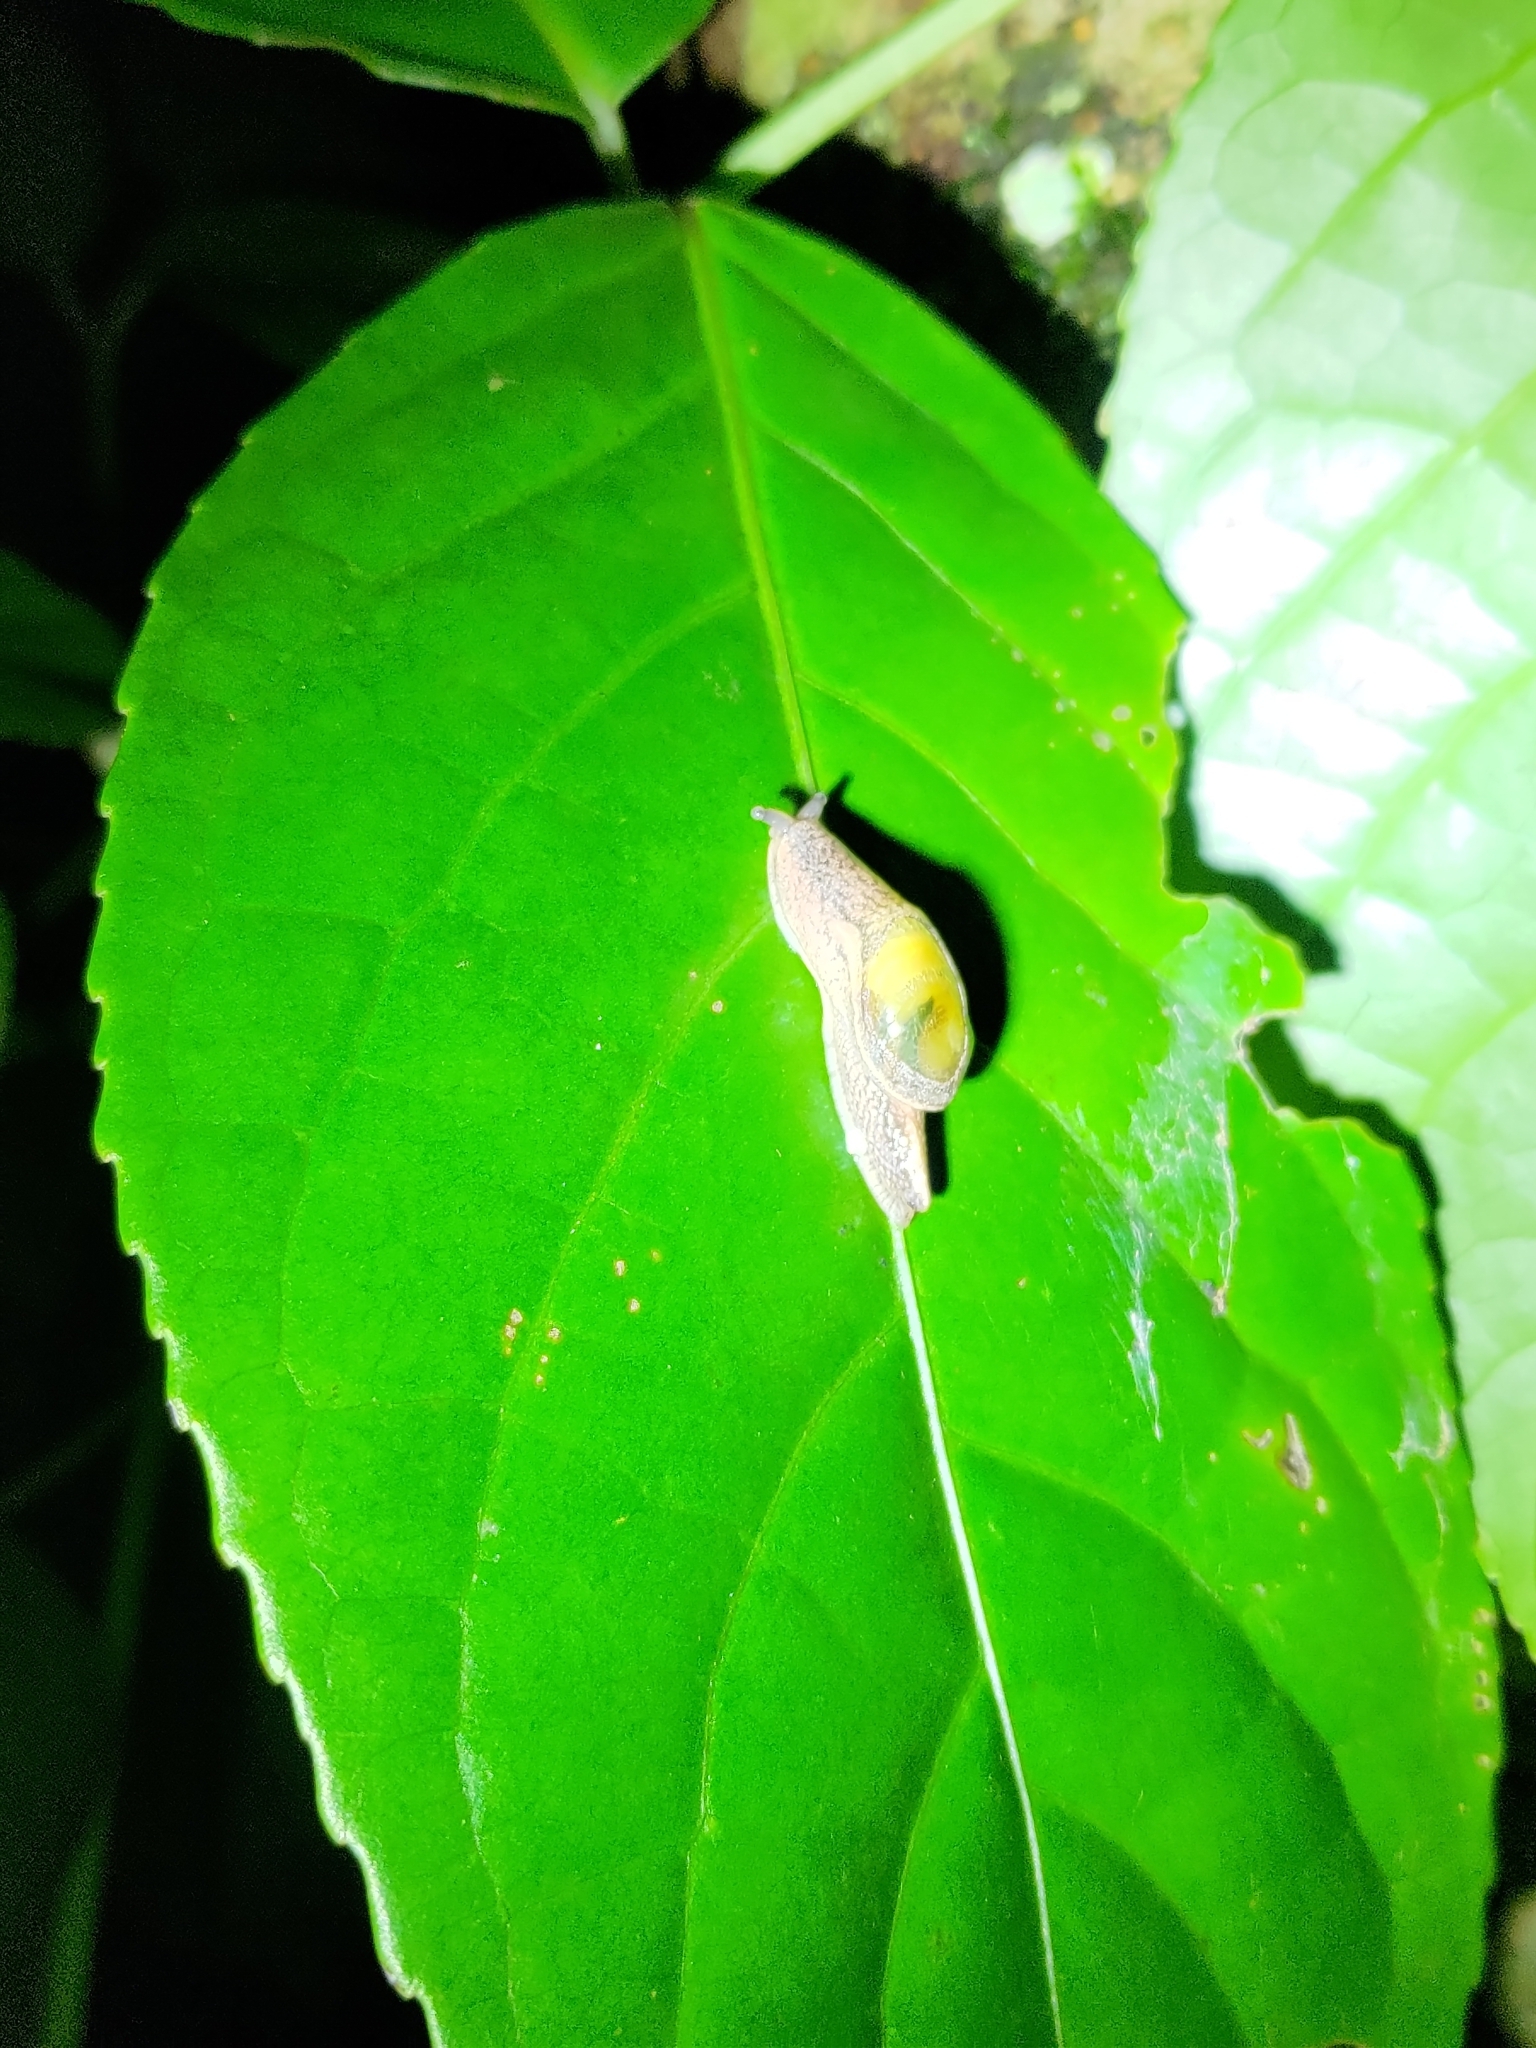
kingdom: Animalia
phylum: Mollusca
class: Gastropoda
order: Stylommatophora
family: Ariophantidae
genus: Parmarion
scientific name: Parmarion martensi
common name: Semi-slug
